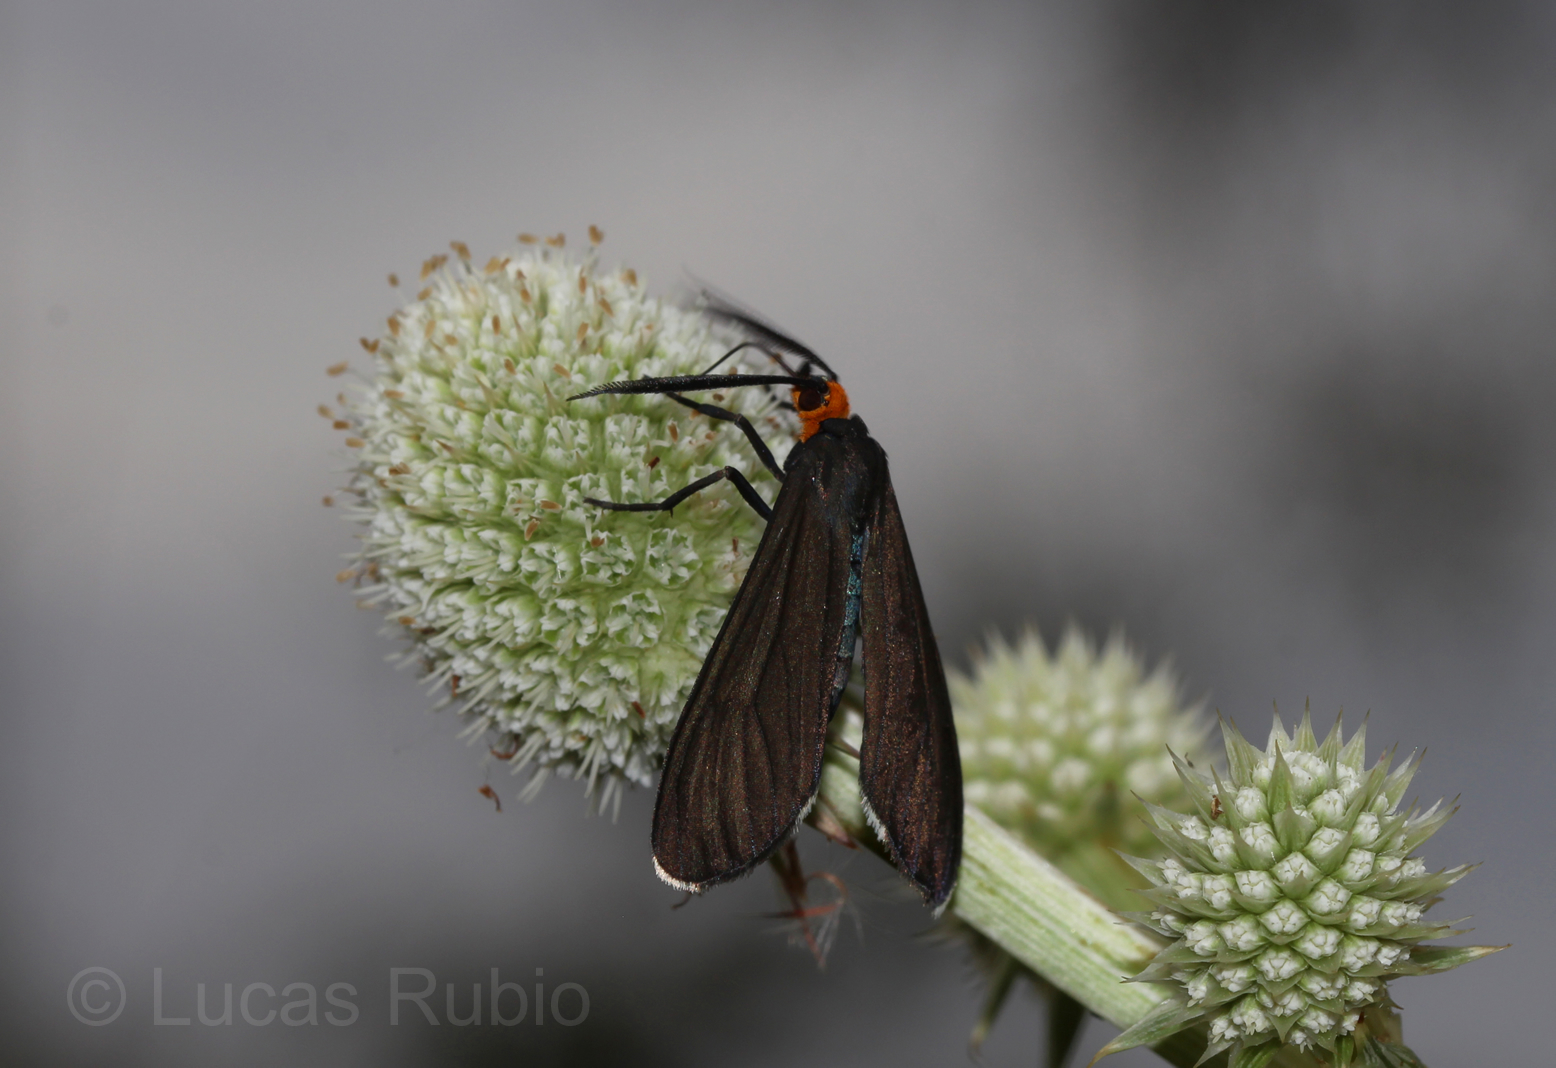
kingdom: Animalia
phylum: Arthropoda
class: Insecta
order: Lepidoptera
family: Erebidae
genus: Ctenucha
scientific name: Ctenucha rubriceps
